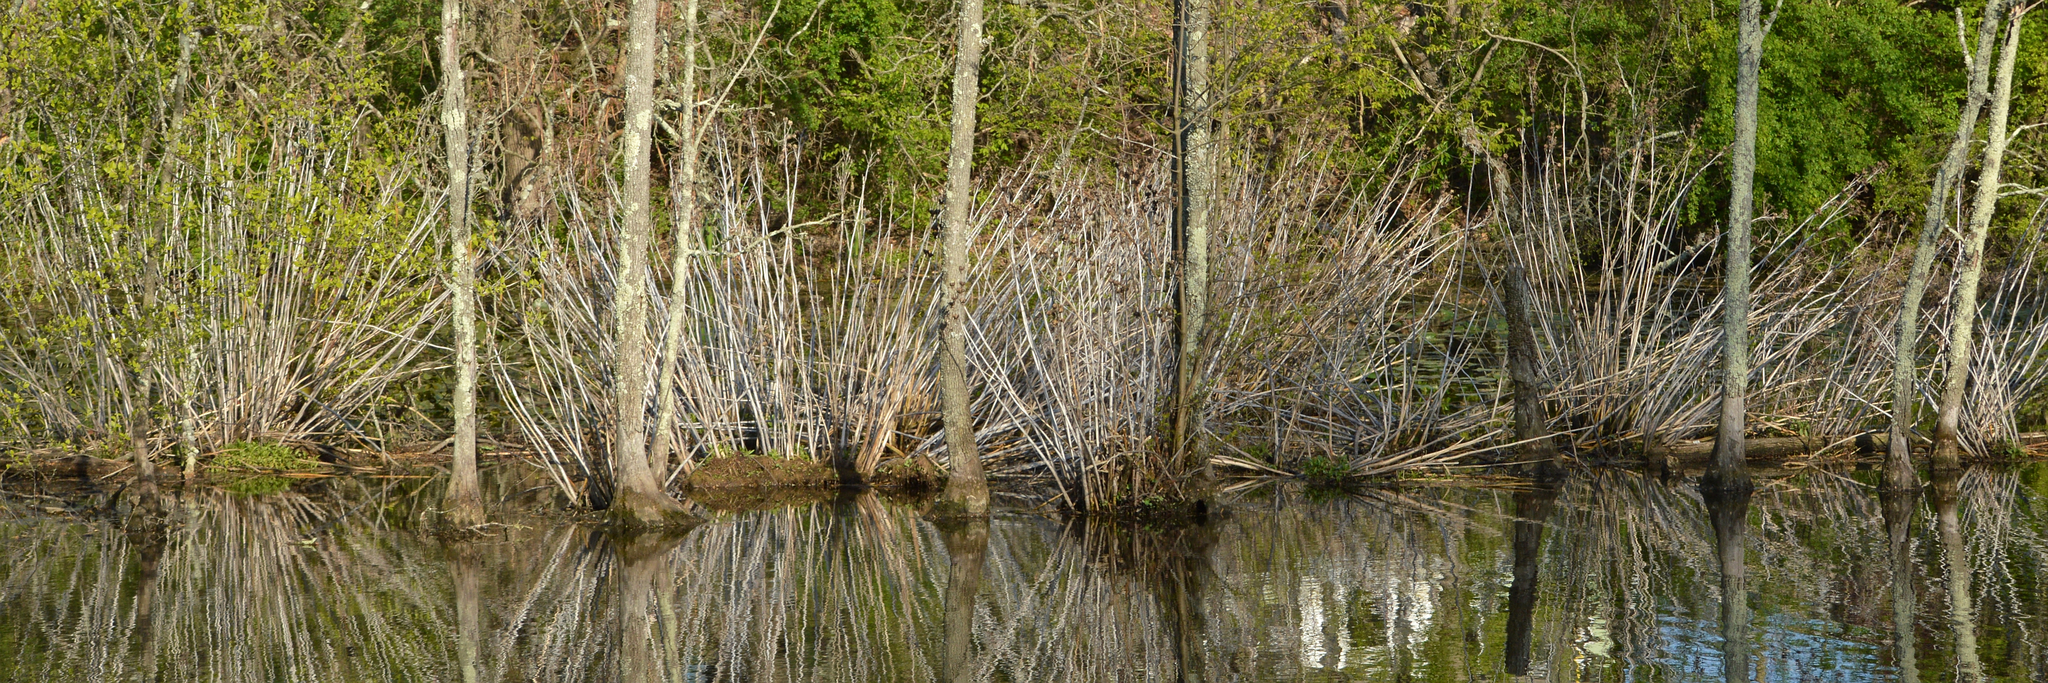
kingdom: Plantae
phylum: Tracheophyta
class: Magnoliopsida
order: Malvales
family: Malvaceae
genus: Hibiscus
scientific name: Hibiscus moscheutos
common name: Common rose-mallow
